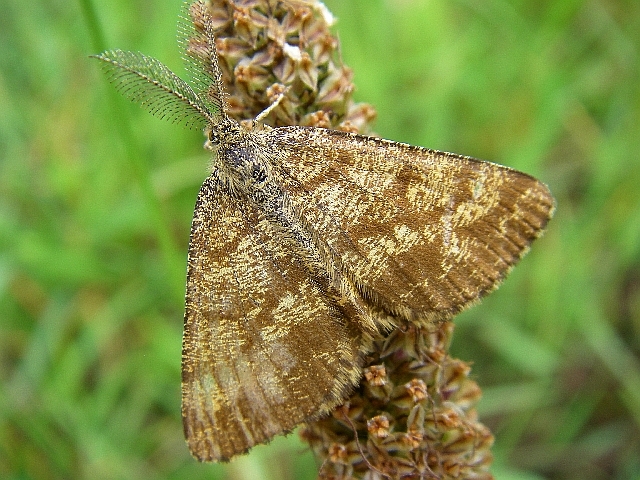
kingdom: Animalia
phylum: Arthropoda
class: Insecta
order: Lepidoptera
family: Geometridae
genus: Ematurga
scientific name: Ematurga atomaria
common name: Common heath
